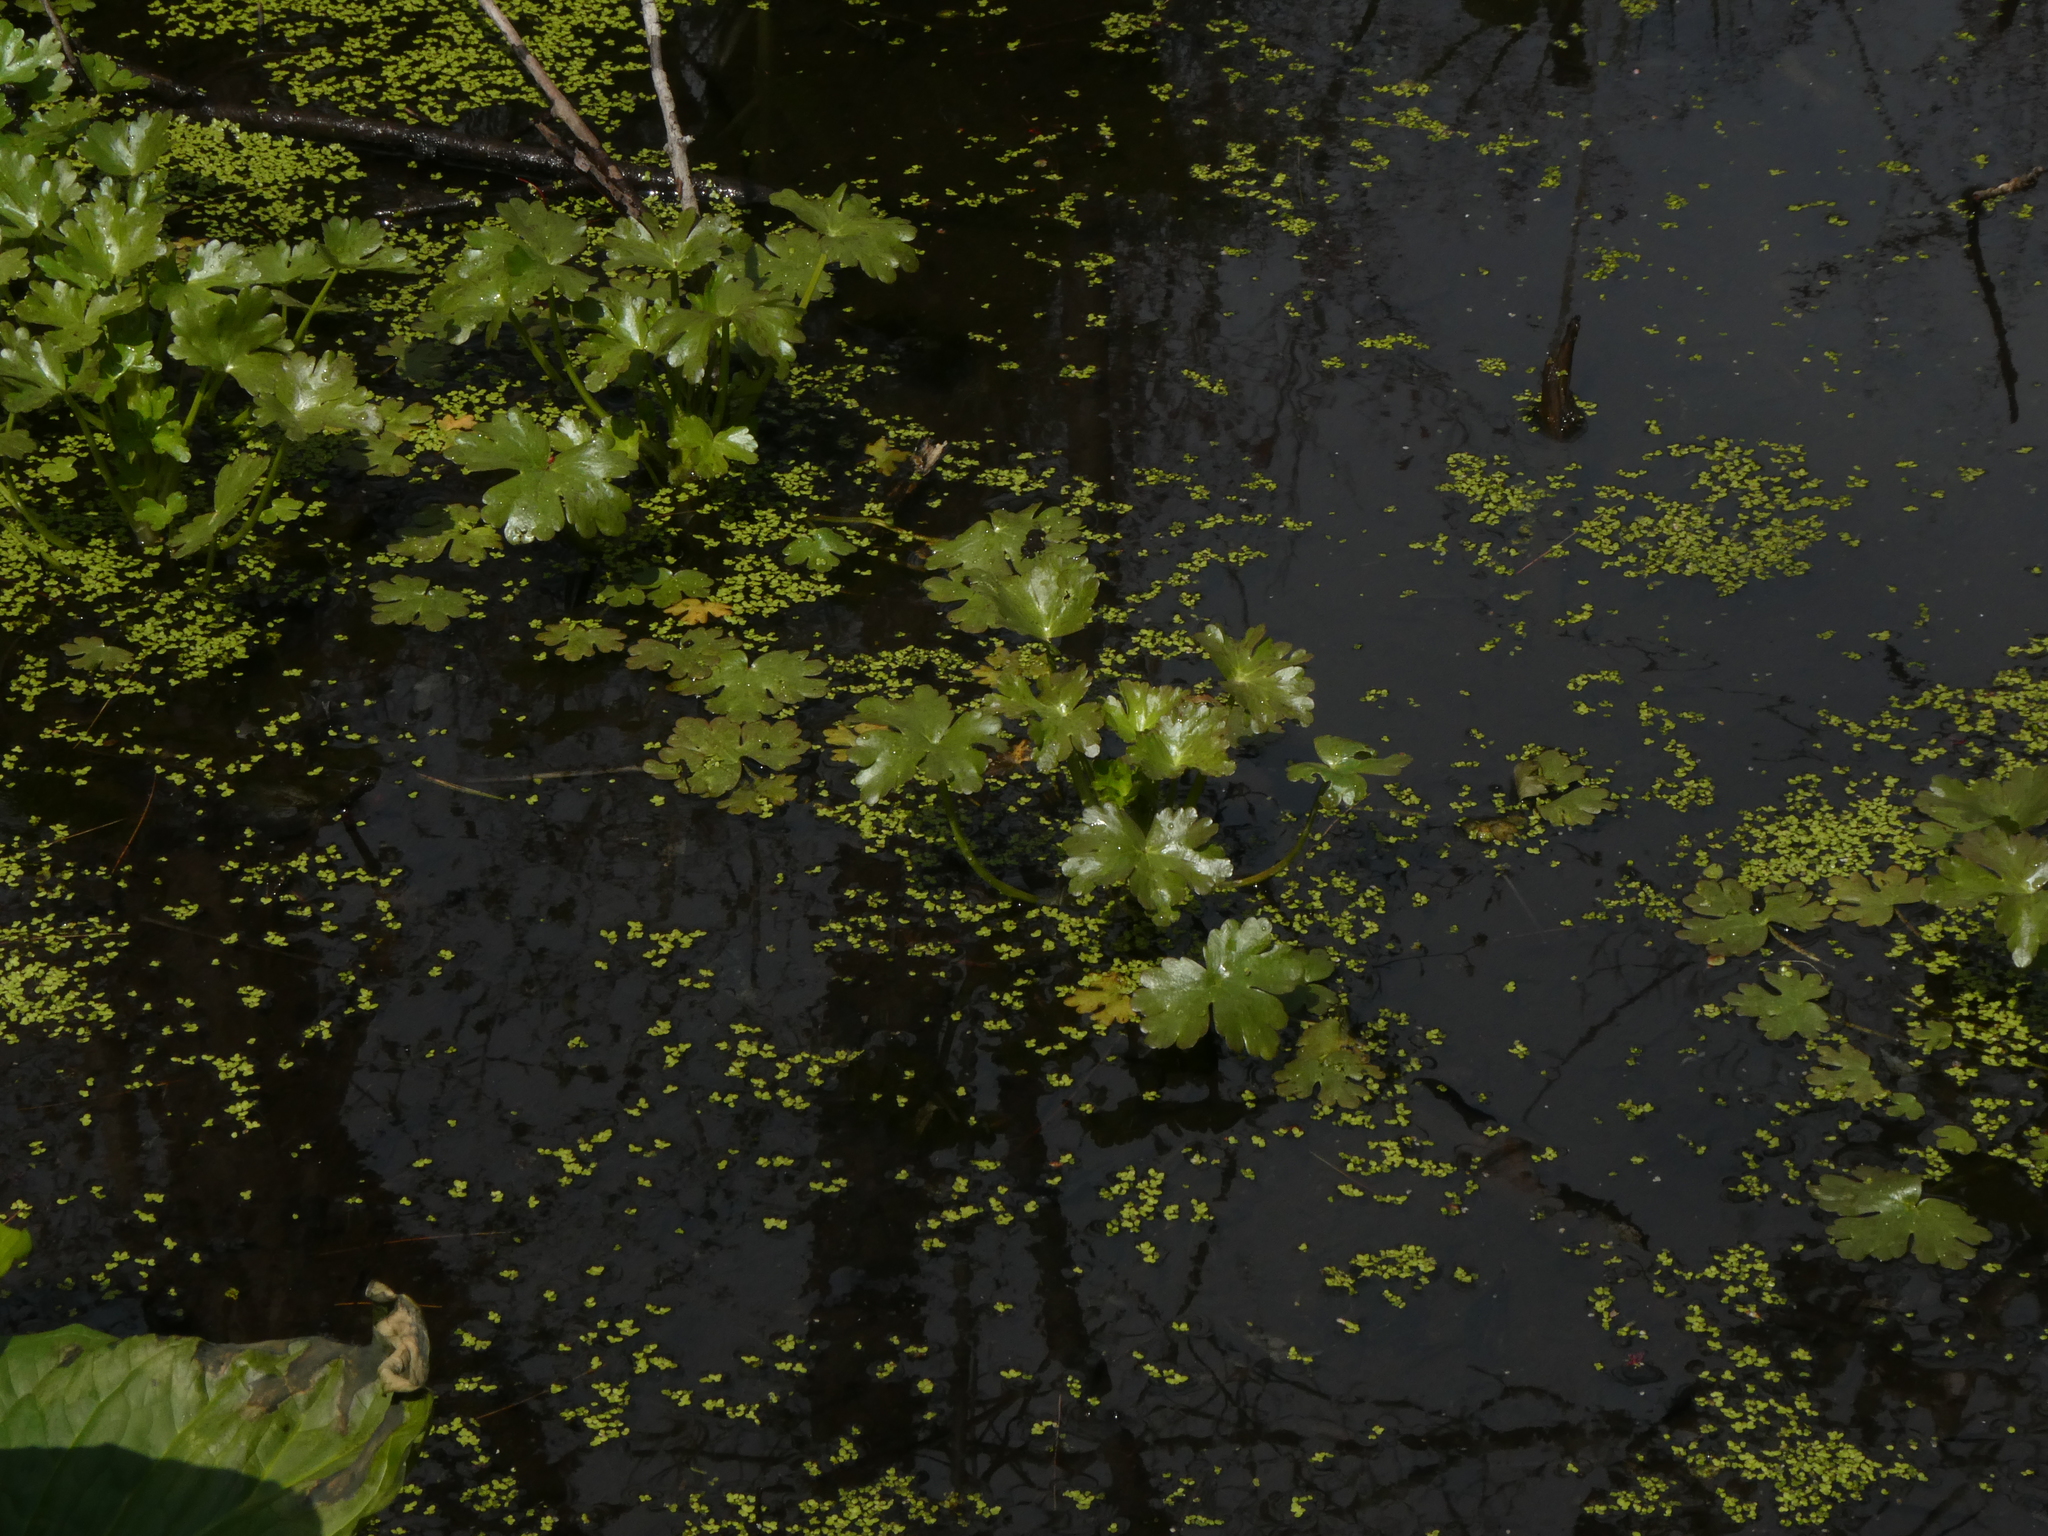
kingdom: Plantae
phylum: Tracheophyta
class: Magnoliopsida
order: Ranunculales
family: Ranunculaceae
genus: Ranunculus
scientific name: Ranunculus sceleratus
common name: Celery-leaved buttercup
